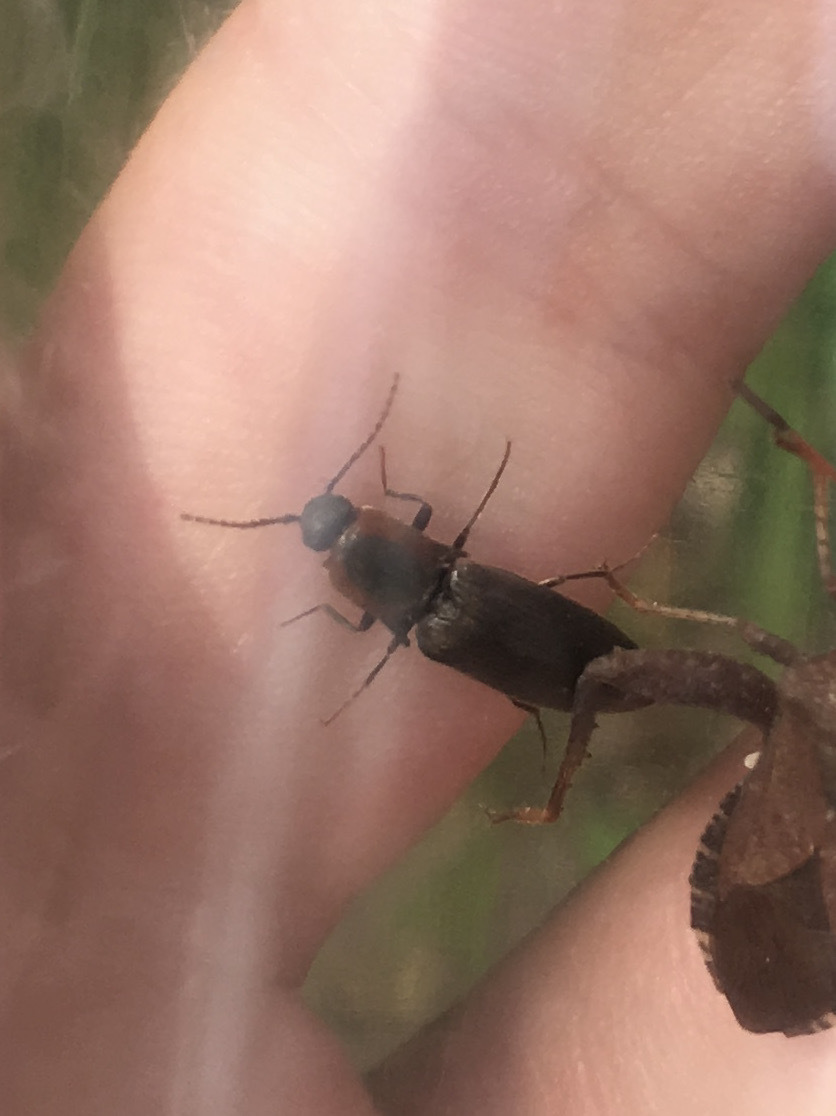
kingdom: Animalia
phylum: Arthropoda
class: Insecta
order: Coleoptera
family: Elateridae
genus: Agriotes
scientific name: Agriotes fucosus
